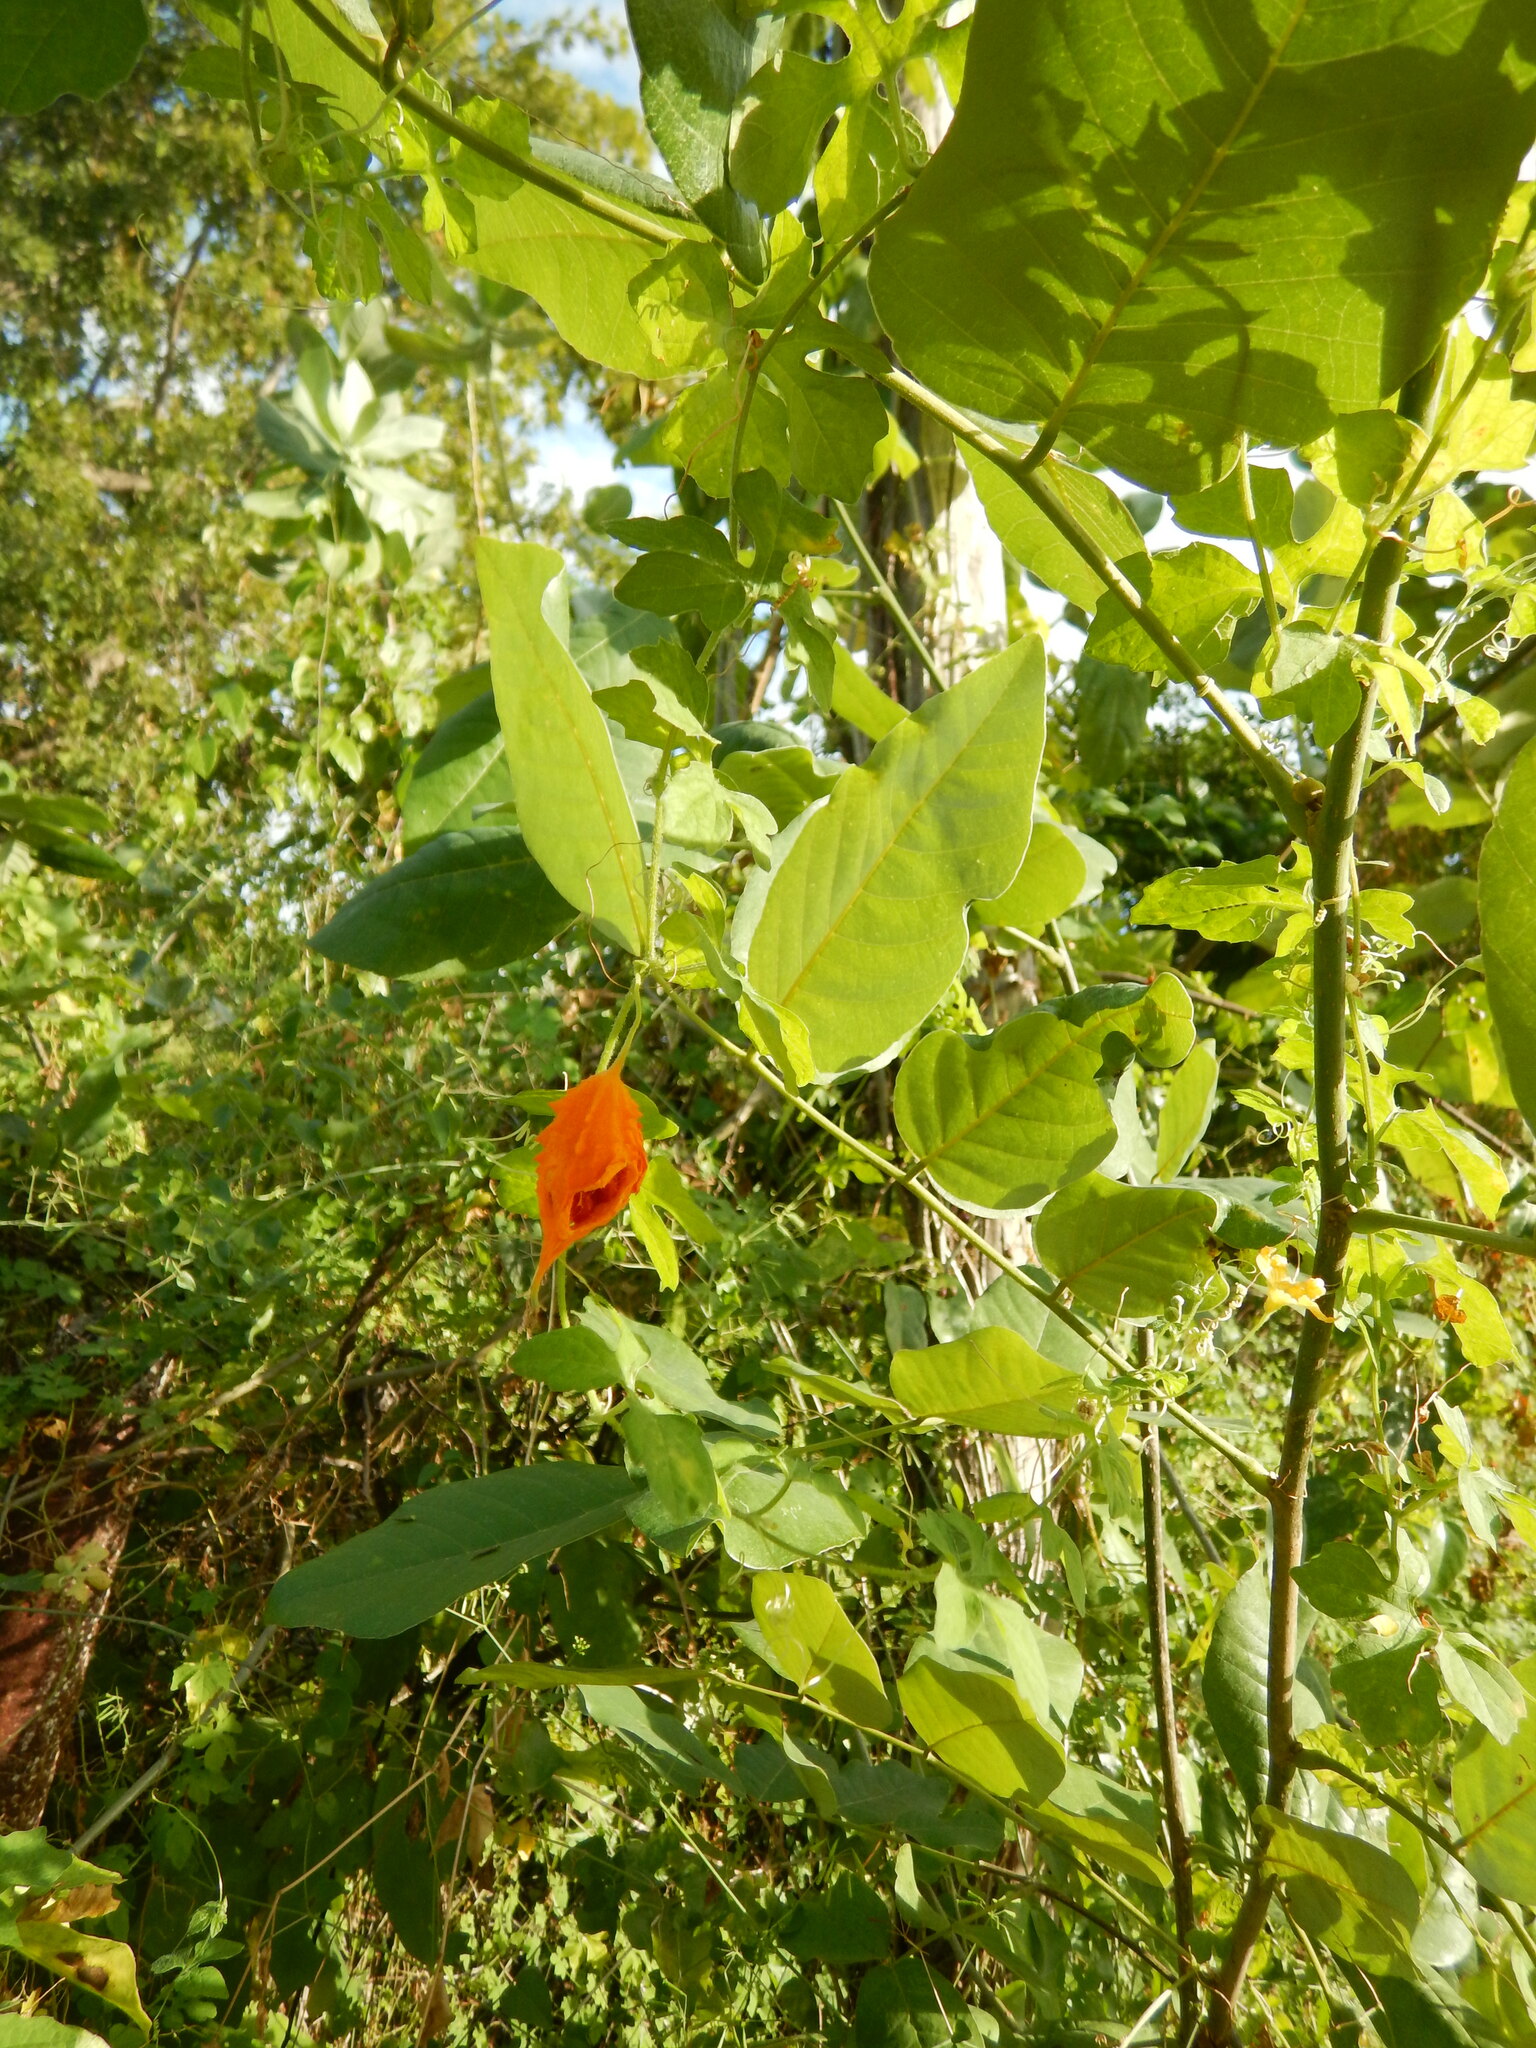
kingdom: Plantae
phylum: Tracheophyta
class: Magnoliopsida
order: Cucurbitales
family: Cucurbitaceae
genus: Momordica
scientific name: Momordica charantia
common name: Balsampear
